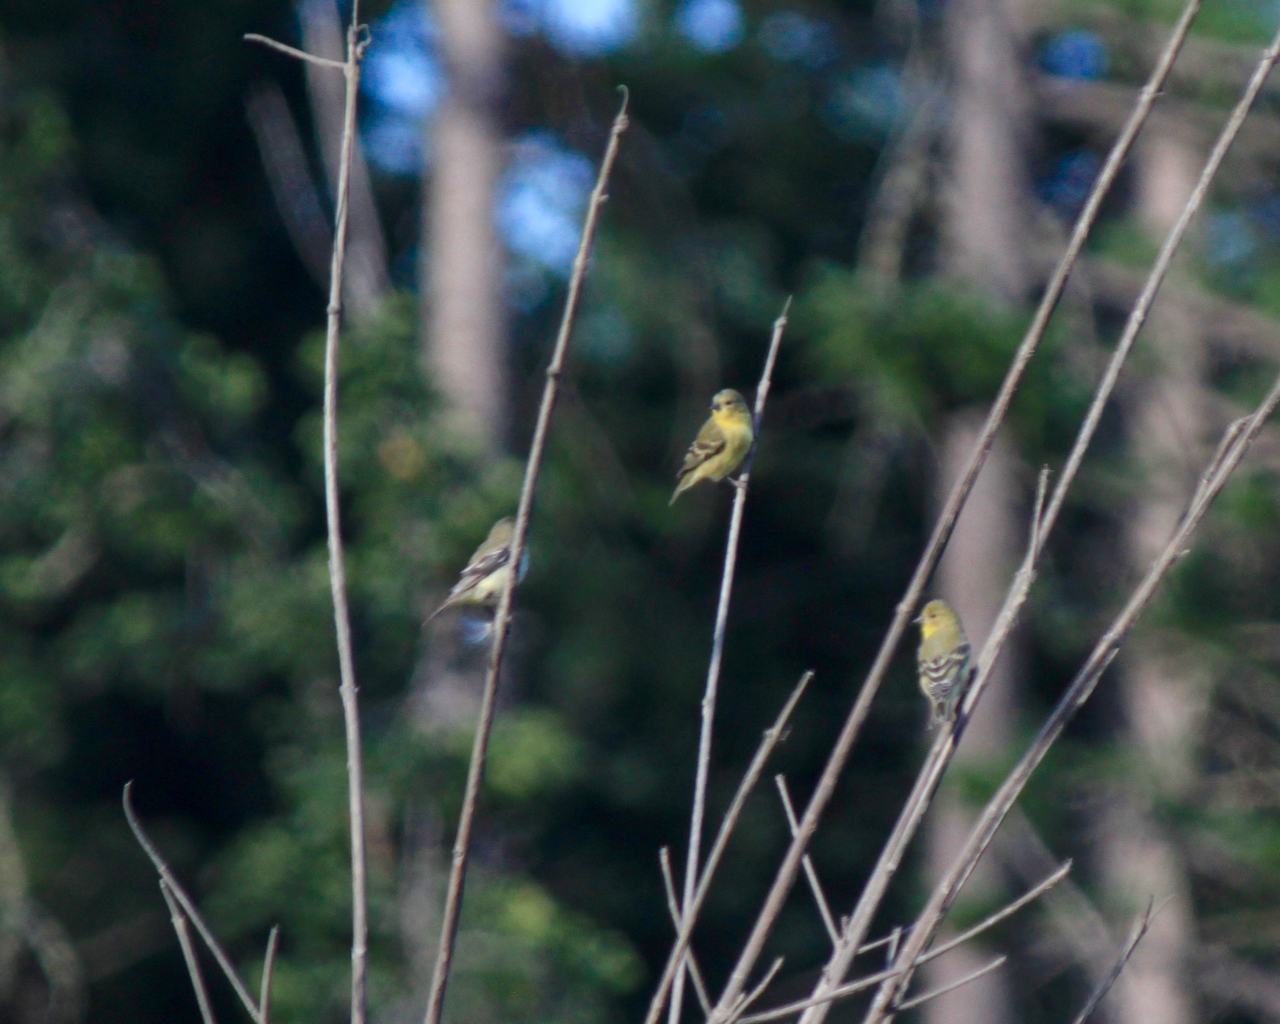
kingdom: Animalia
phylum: Chordata
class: Aves
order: Passeriformes
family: Fringillidae
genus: Spinus
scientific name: Spinus tristis
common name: American goldfinch
